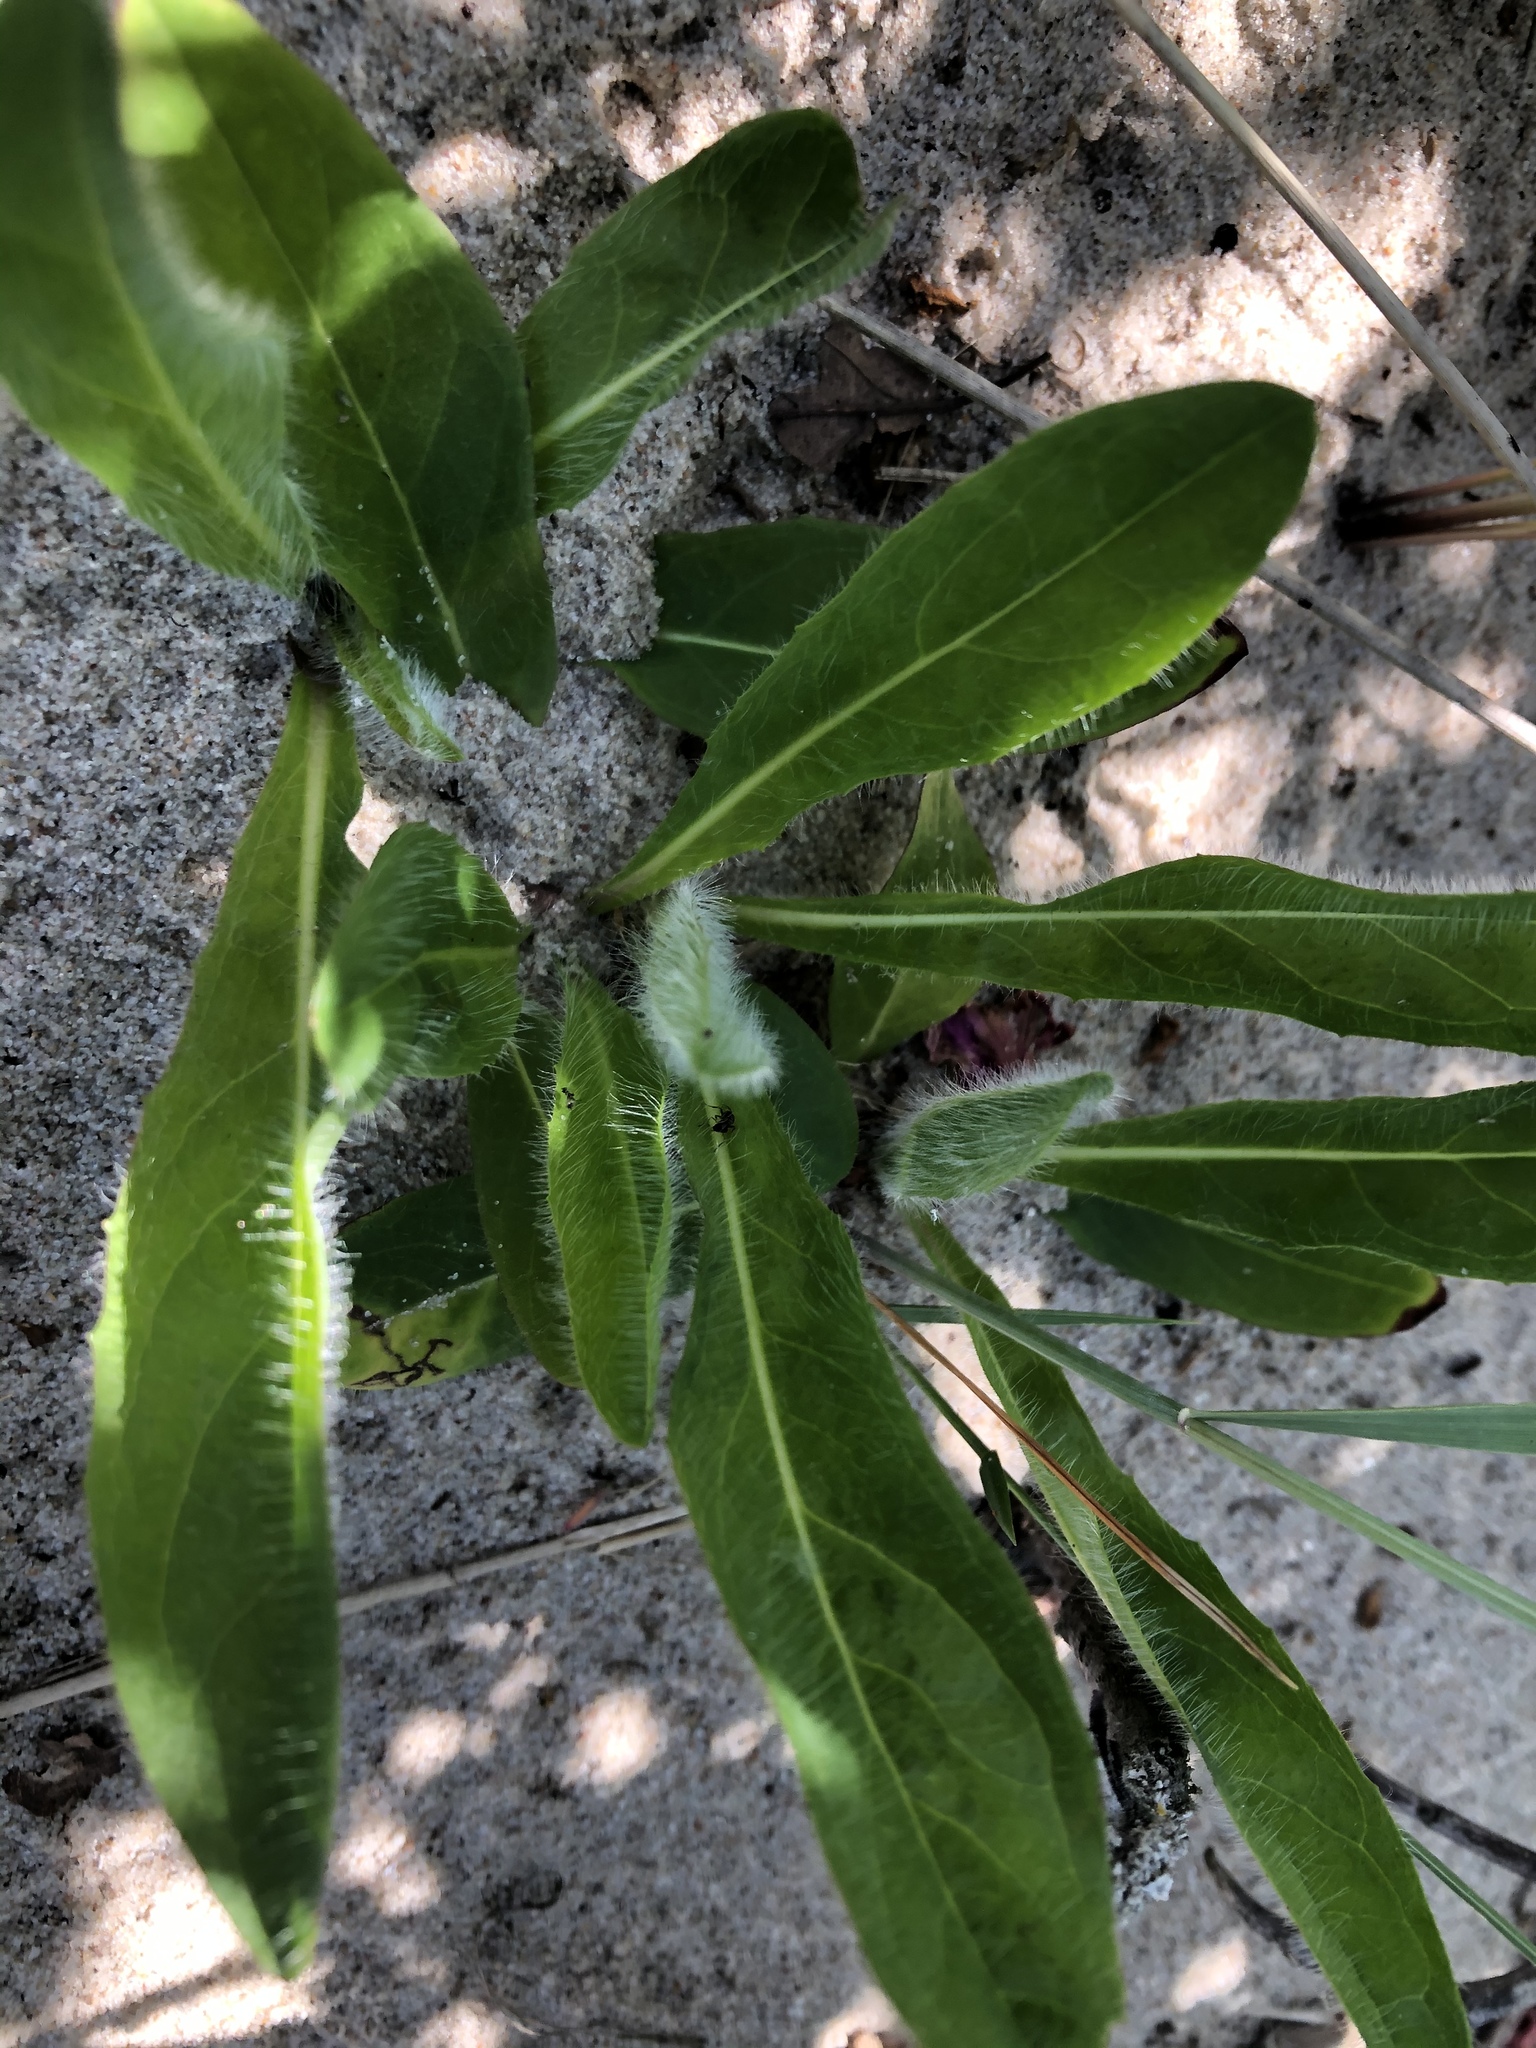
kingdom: Plantae
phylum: Tracheophyta
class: Magnoliopsida
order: Asterales
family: Asteraceae
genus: Pilosella
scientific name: Pilosella aurantiaca
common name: Fox-and-cubs
